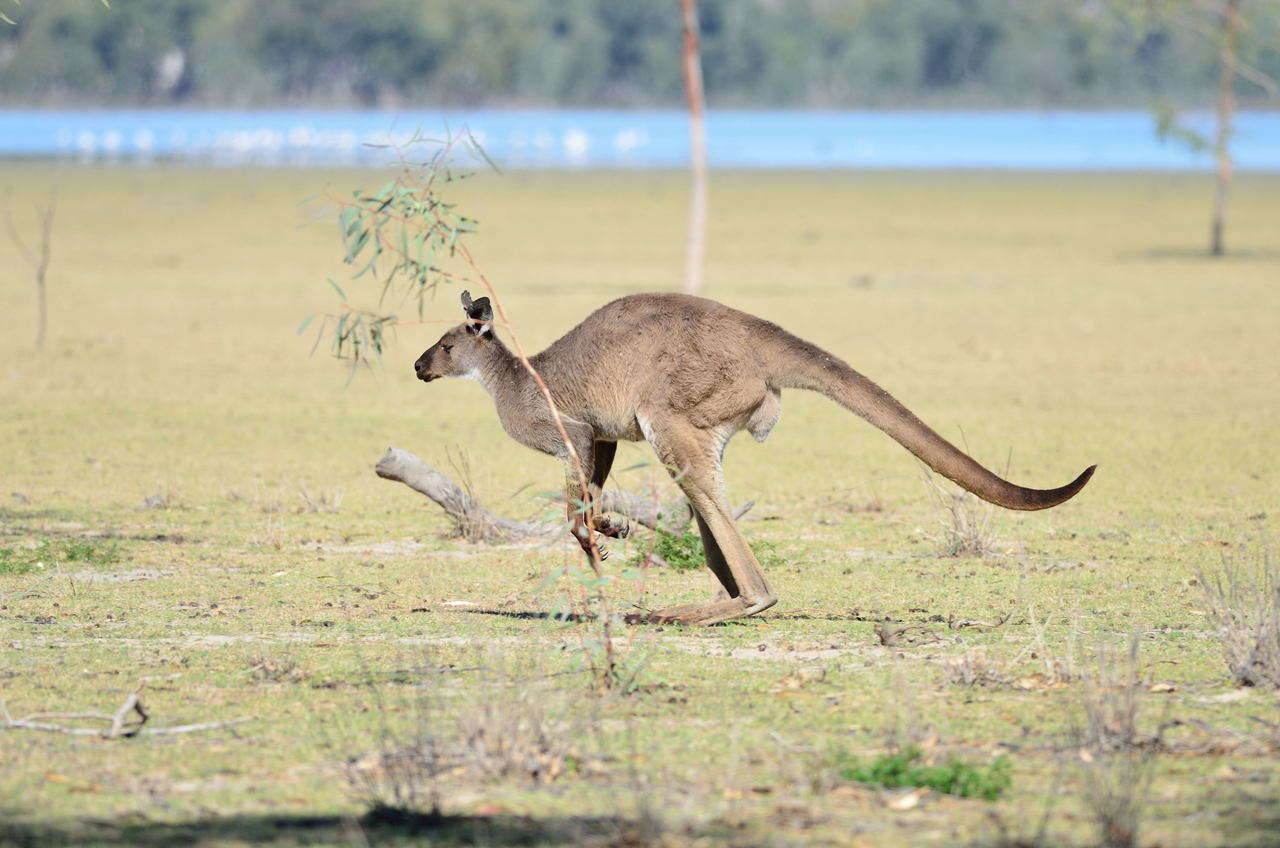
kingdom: Animalia
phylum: Chordata
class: Mammalia
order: Diprotodontia
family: Macropodidae
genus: Macropus
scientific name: Macropus fuliginosus
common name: Western grey kangaroo
